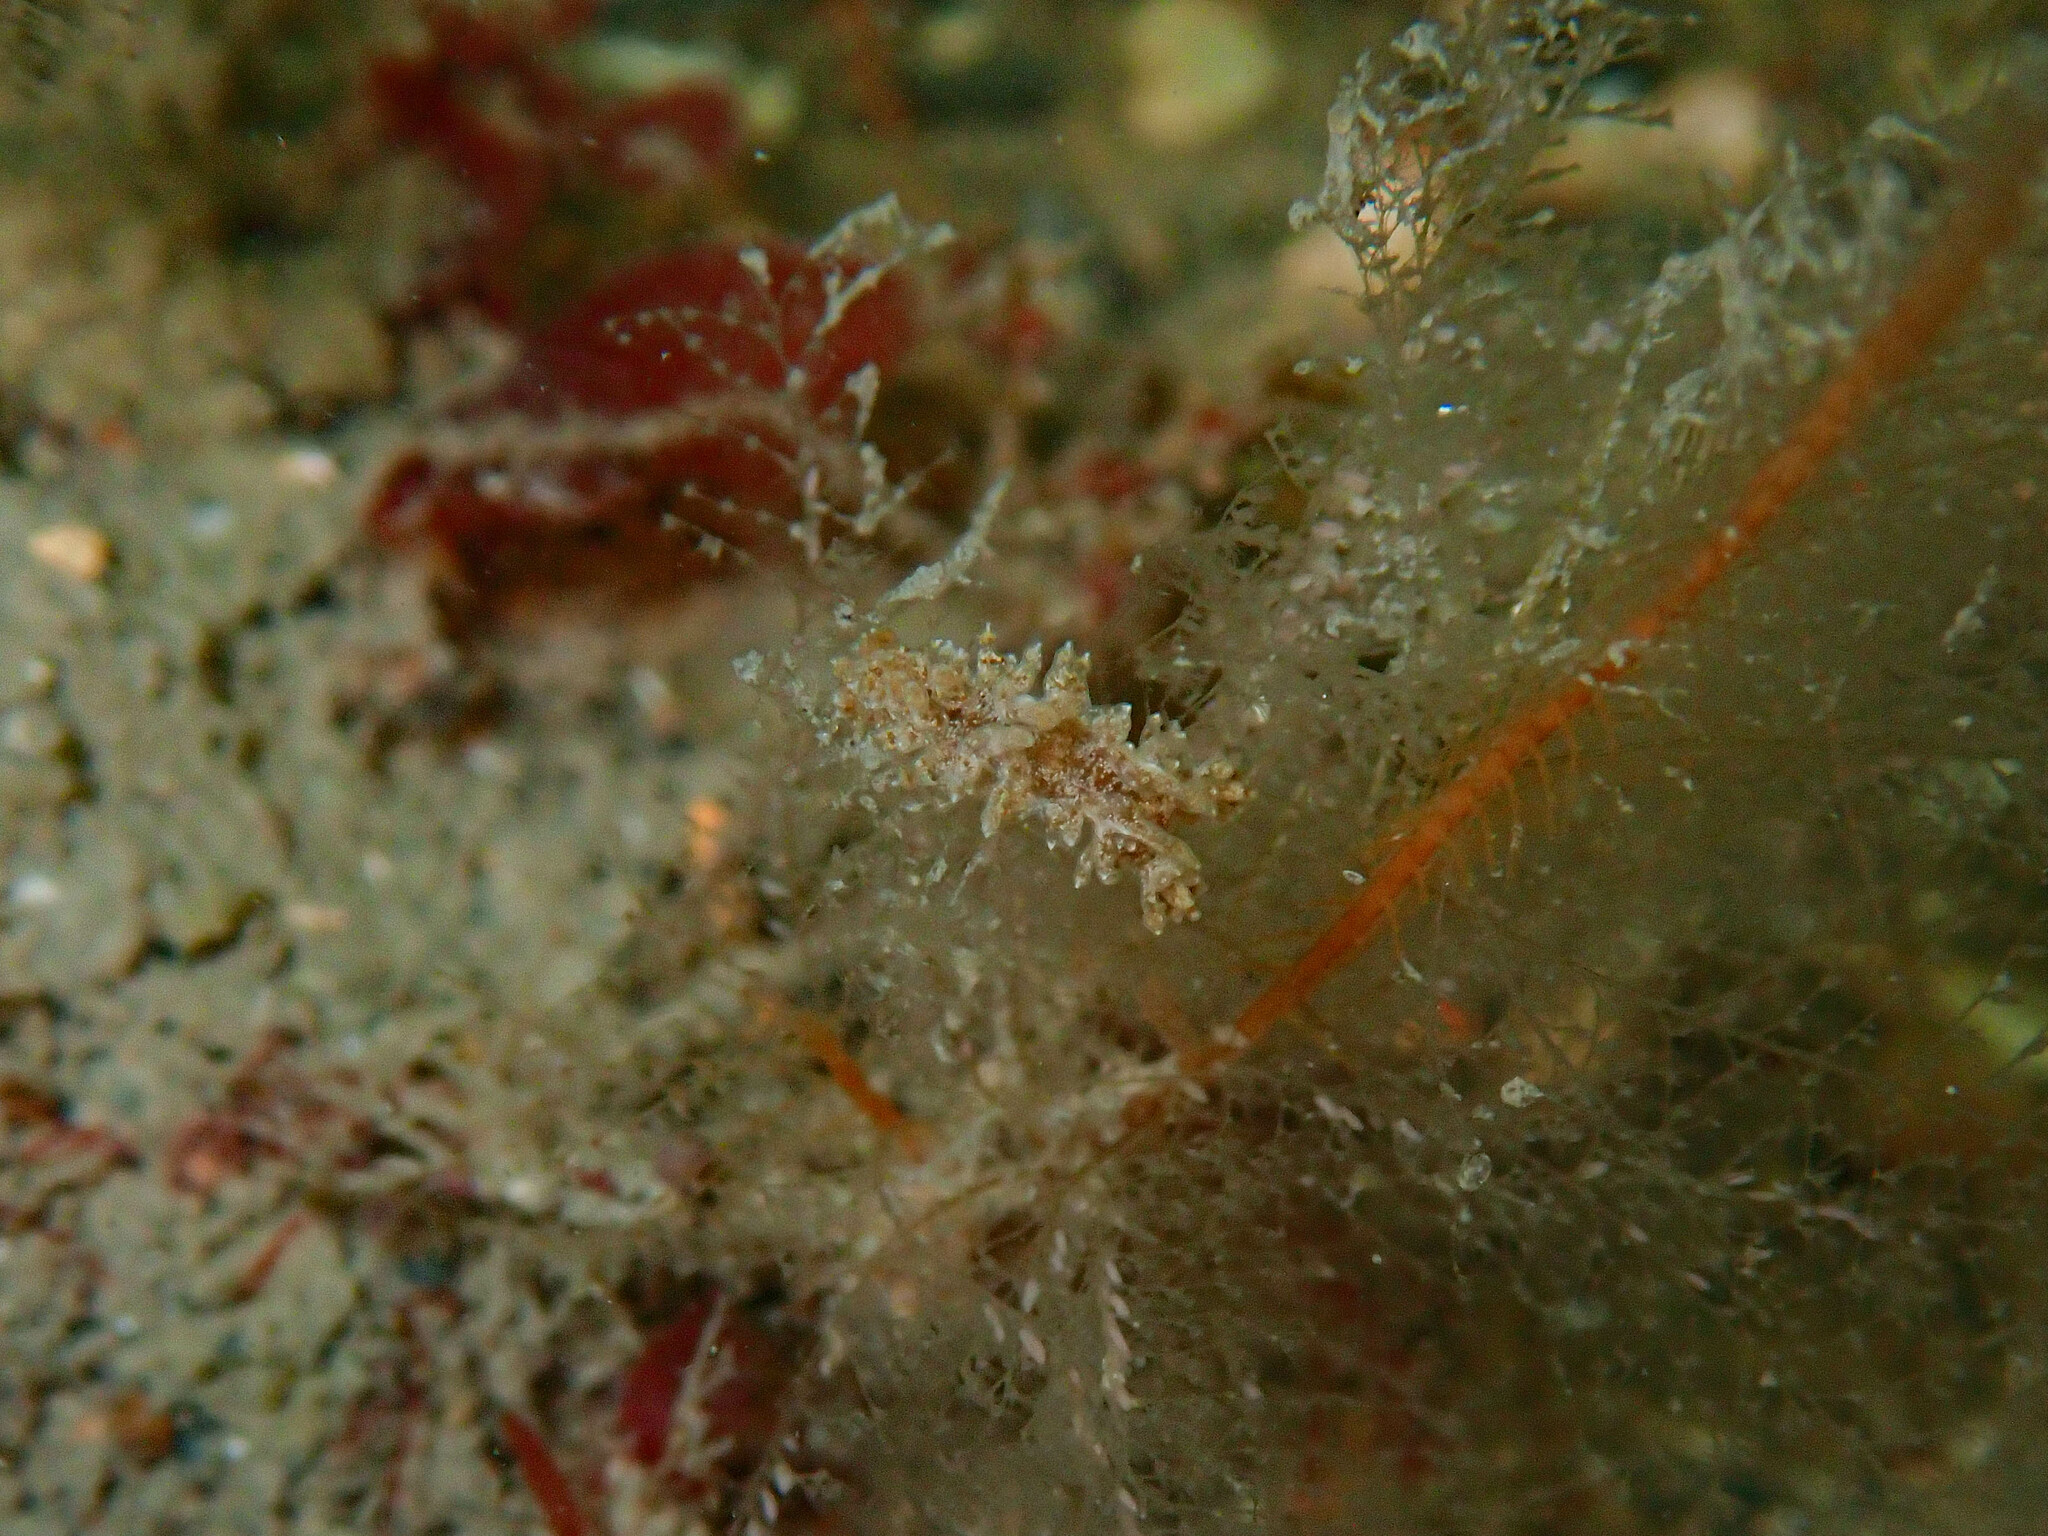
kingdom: Animalia
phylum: Mollusca
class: Gastropoda
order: Nudibranchia
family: Lomanotidae
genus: Lomanotus
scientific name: Lomanotus marmoratus
